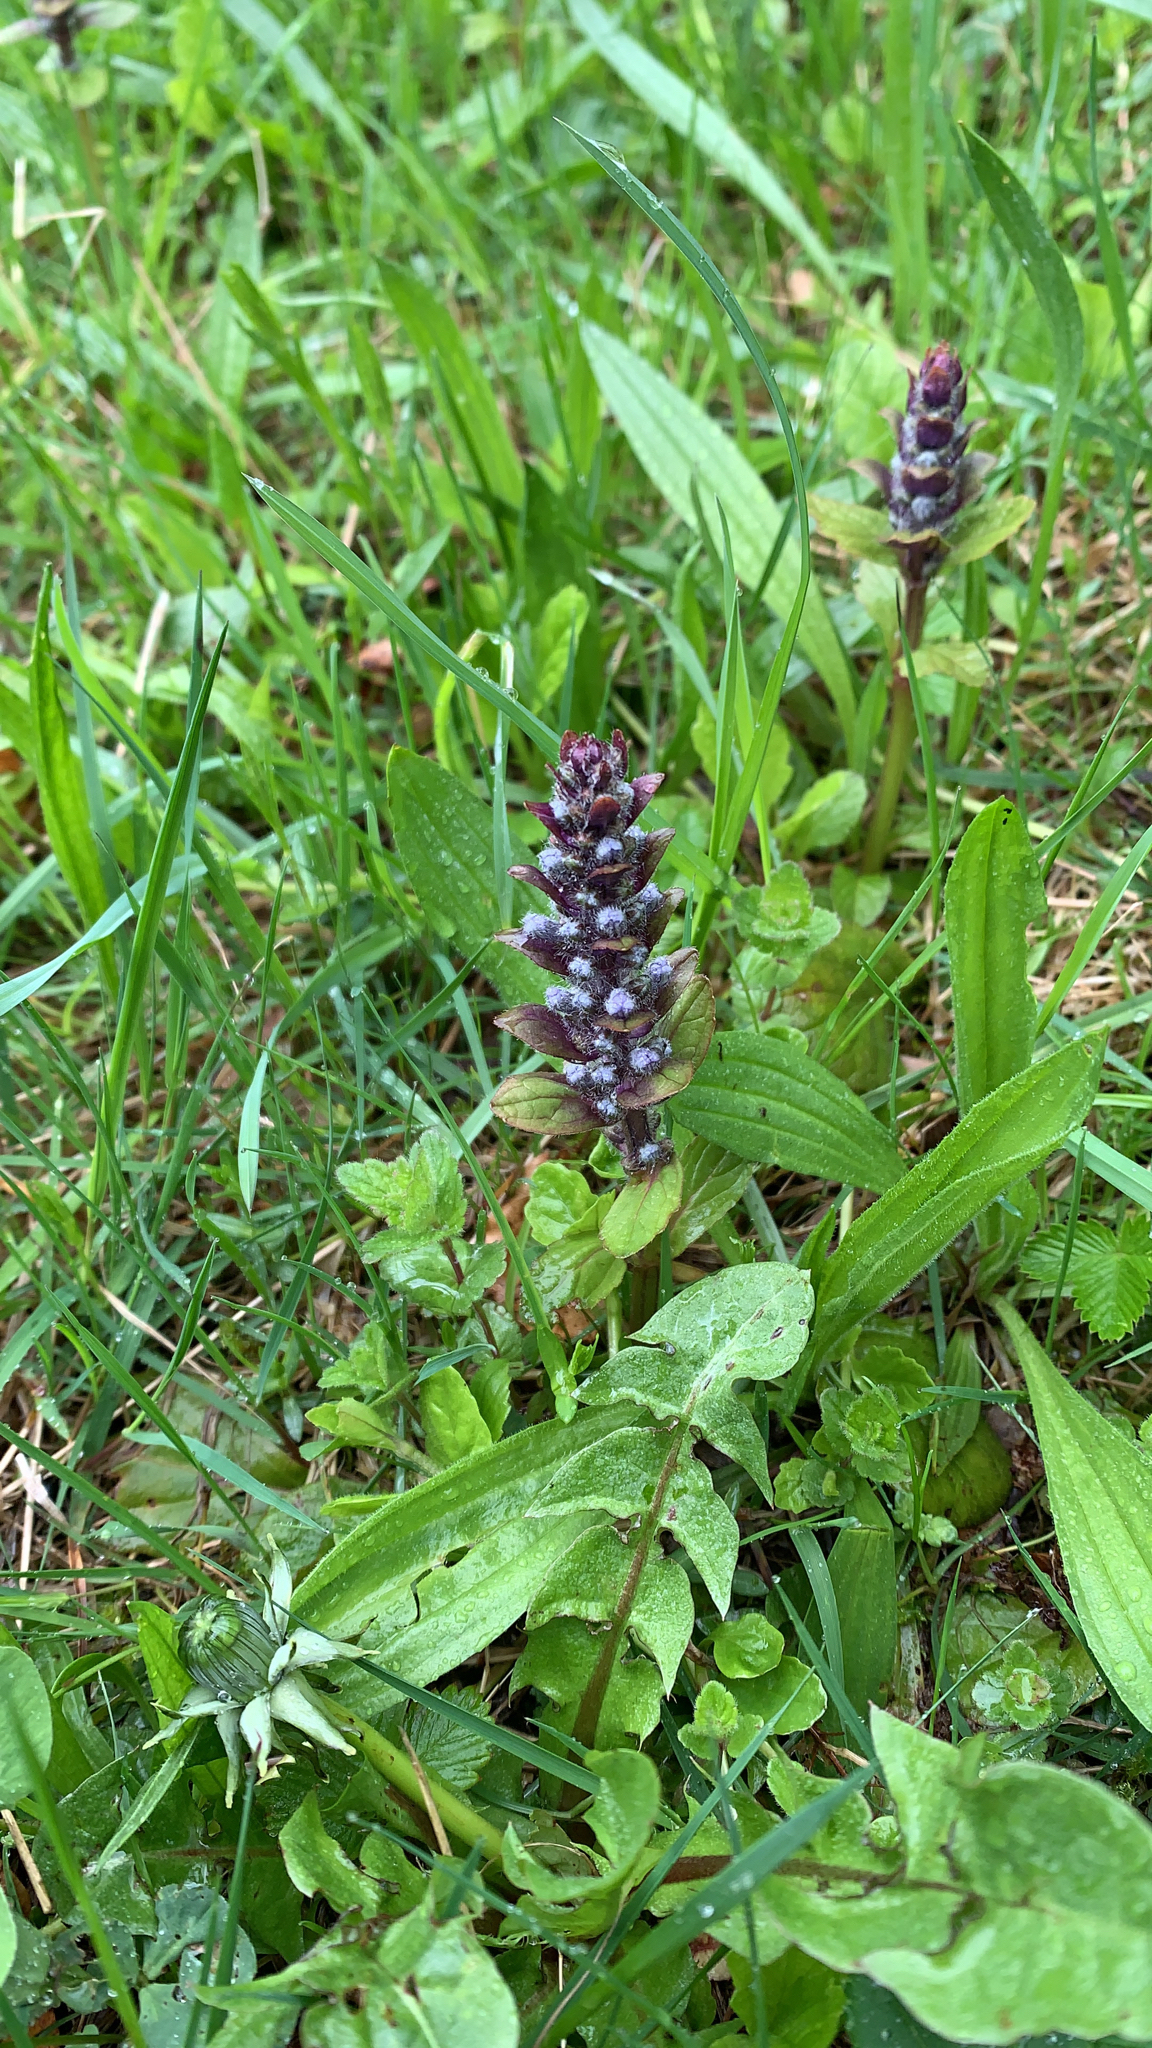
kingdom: Plantae
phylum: Tracheophyta
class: Magnoliopsida
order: Lamiales
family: Lamiaceae
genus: Ajuga
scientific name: Ajuga reptans
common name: Bugle
